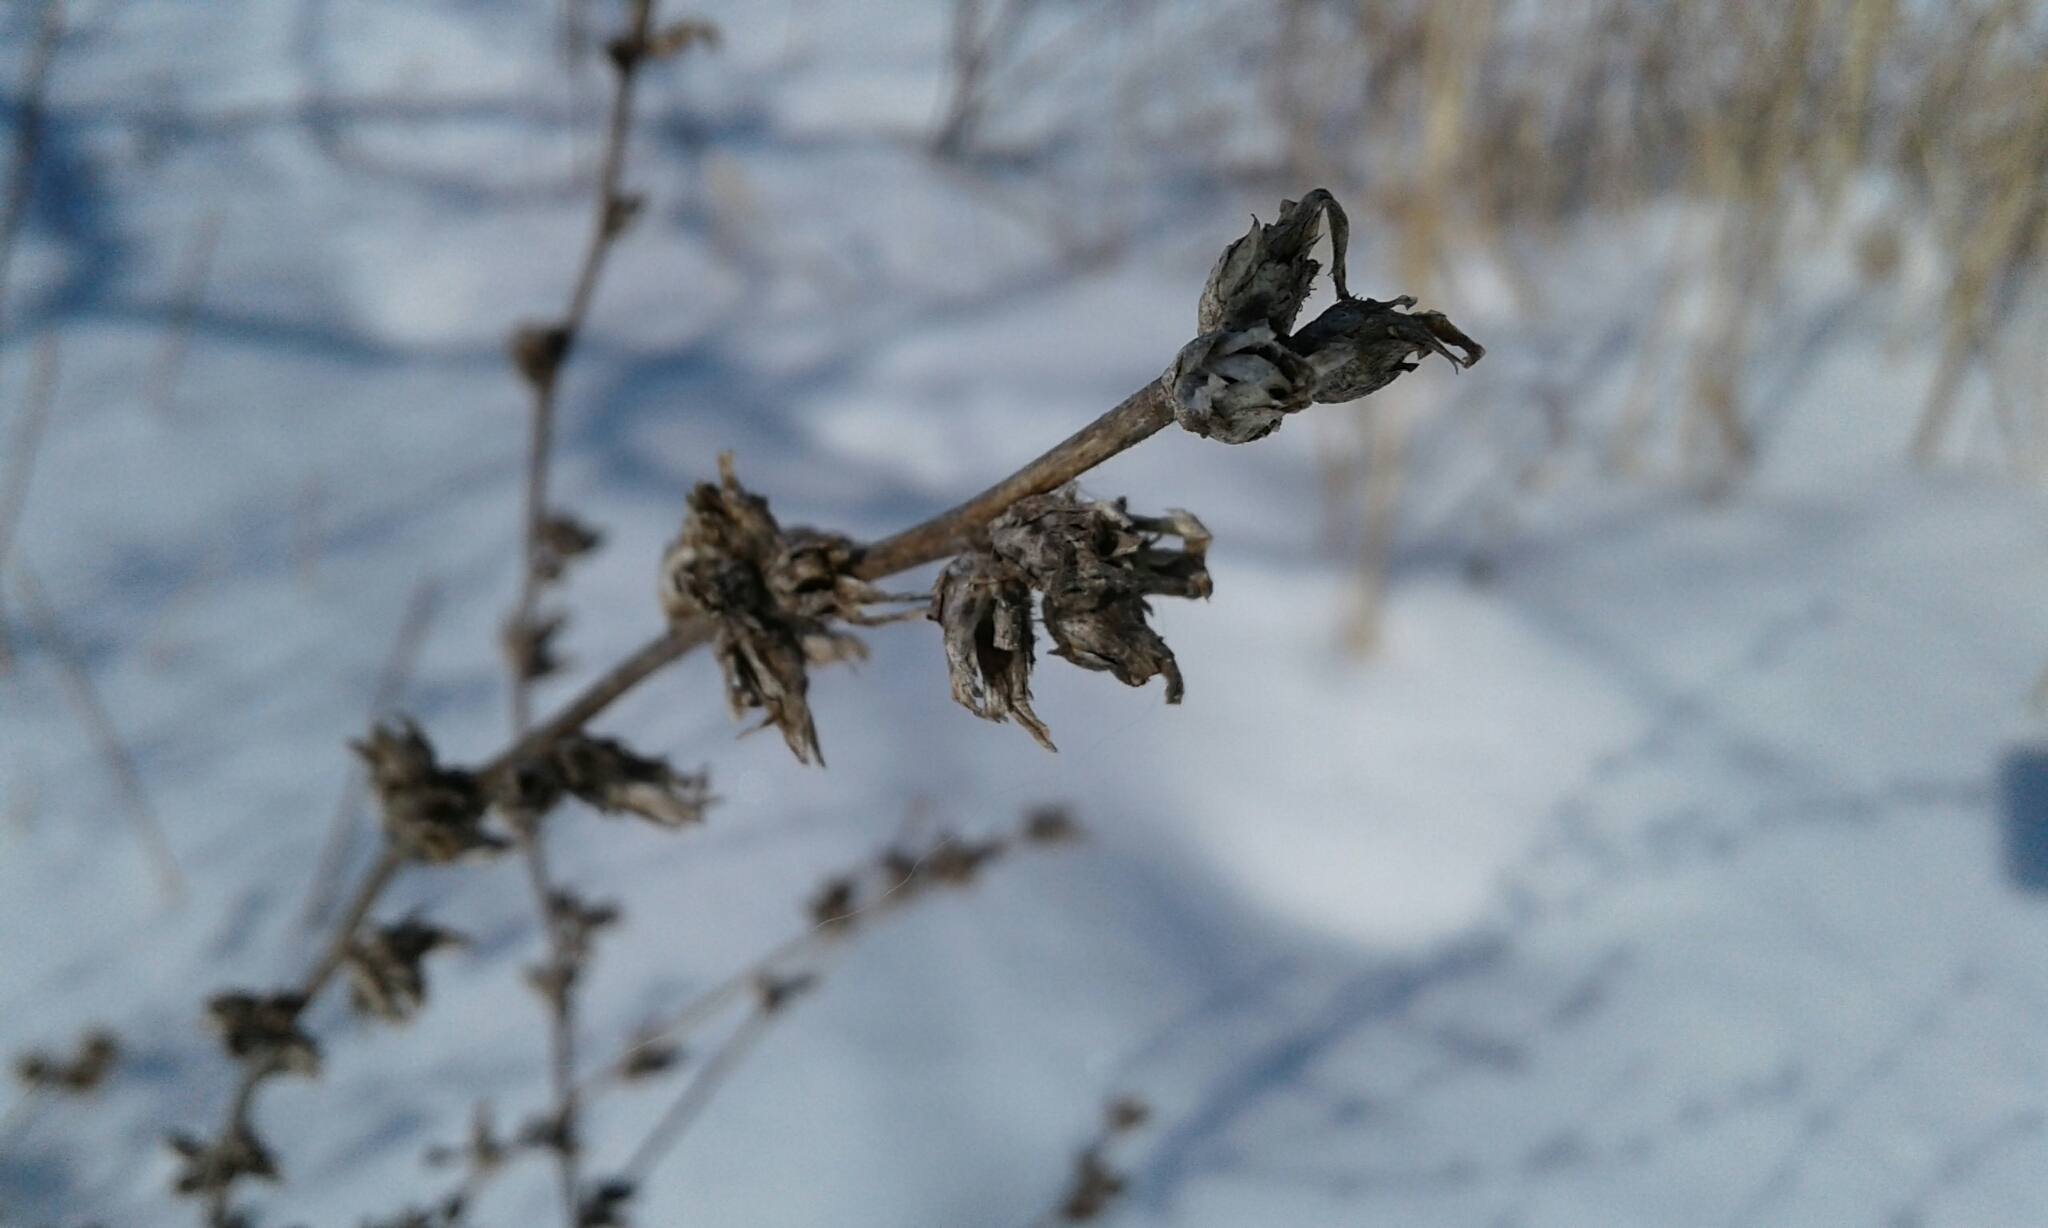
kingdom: Plantae
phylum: Tracheophyta
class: Magnoliopsida
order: Asterales
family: Asteraceae
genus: Cichorium
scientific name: Cichorium intybus
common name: Chicory
